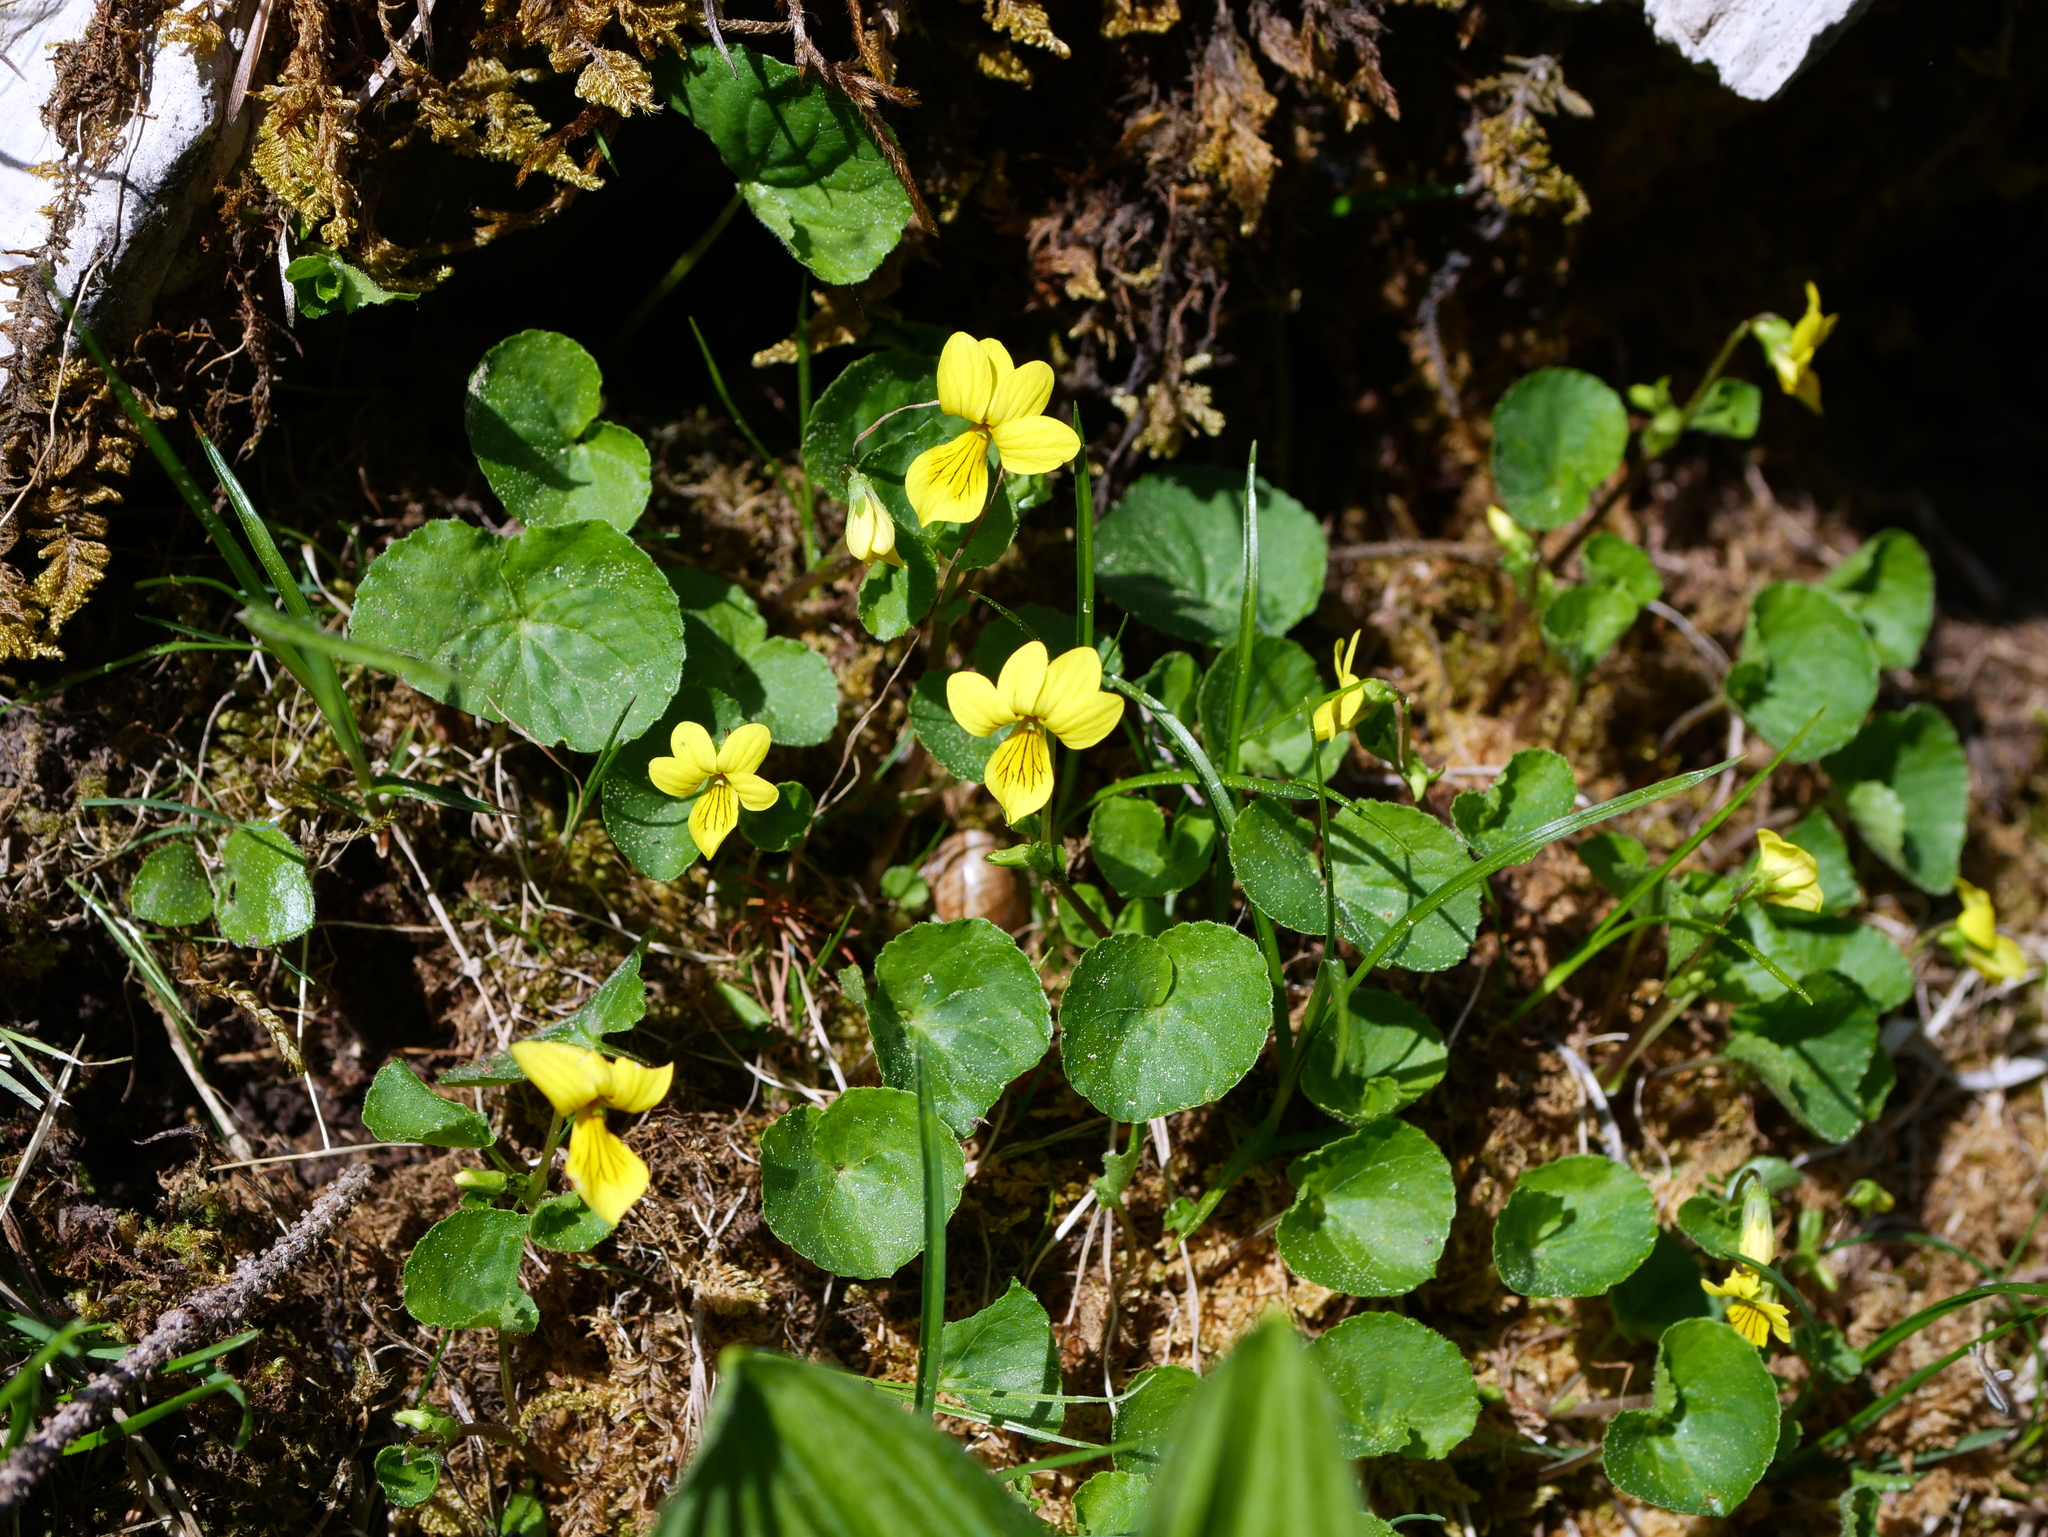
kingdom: Plantae
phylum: Tracheophyta
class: Magnoliopsida
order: Malpighiales
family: Violaceae
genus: Viola
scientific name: Viola biflora
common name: Alpine yellow violet
